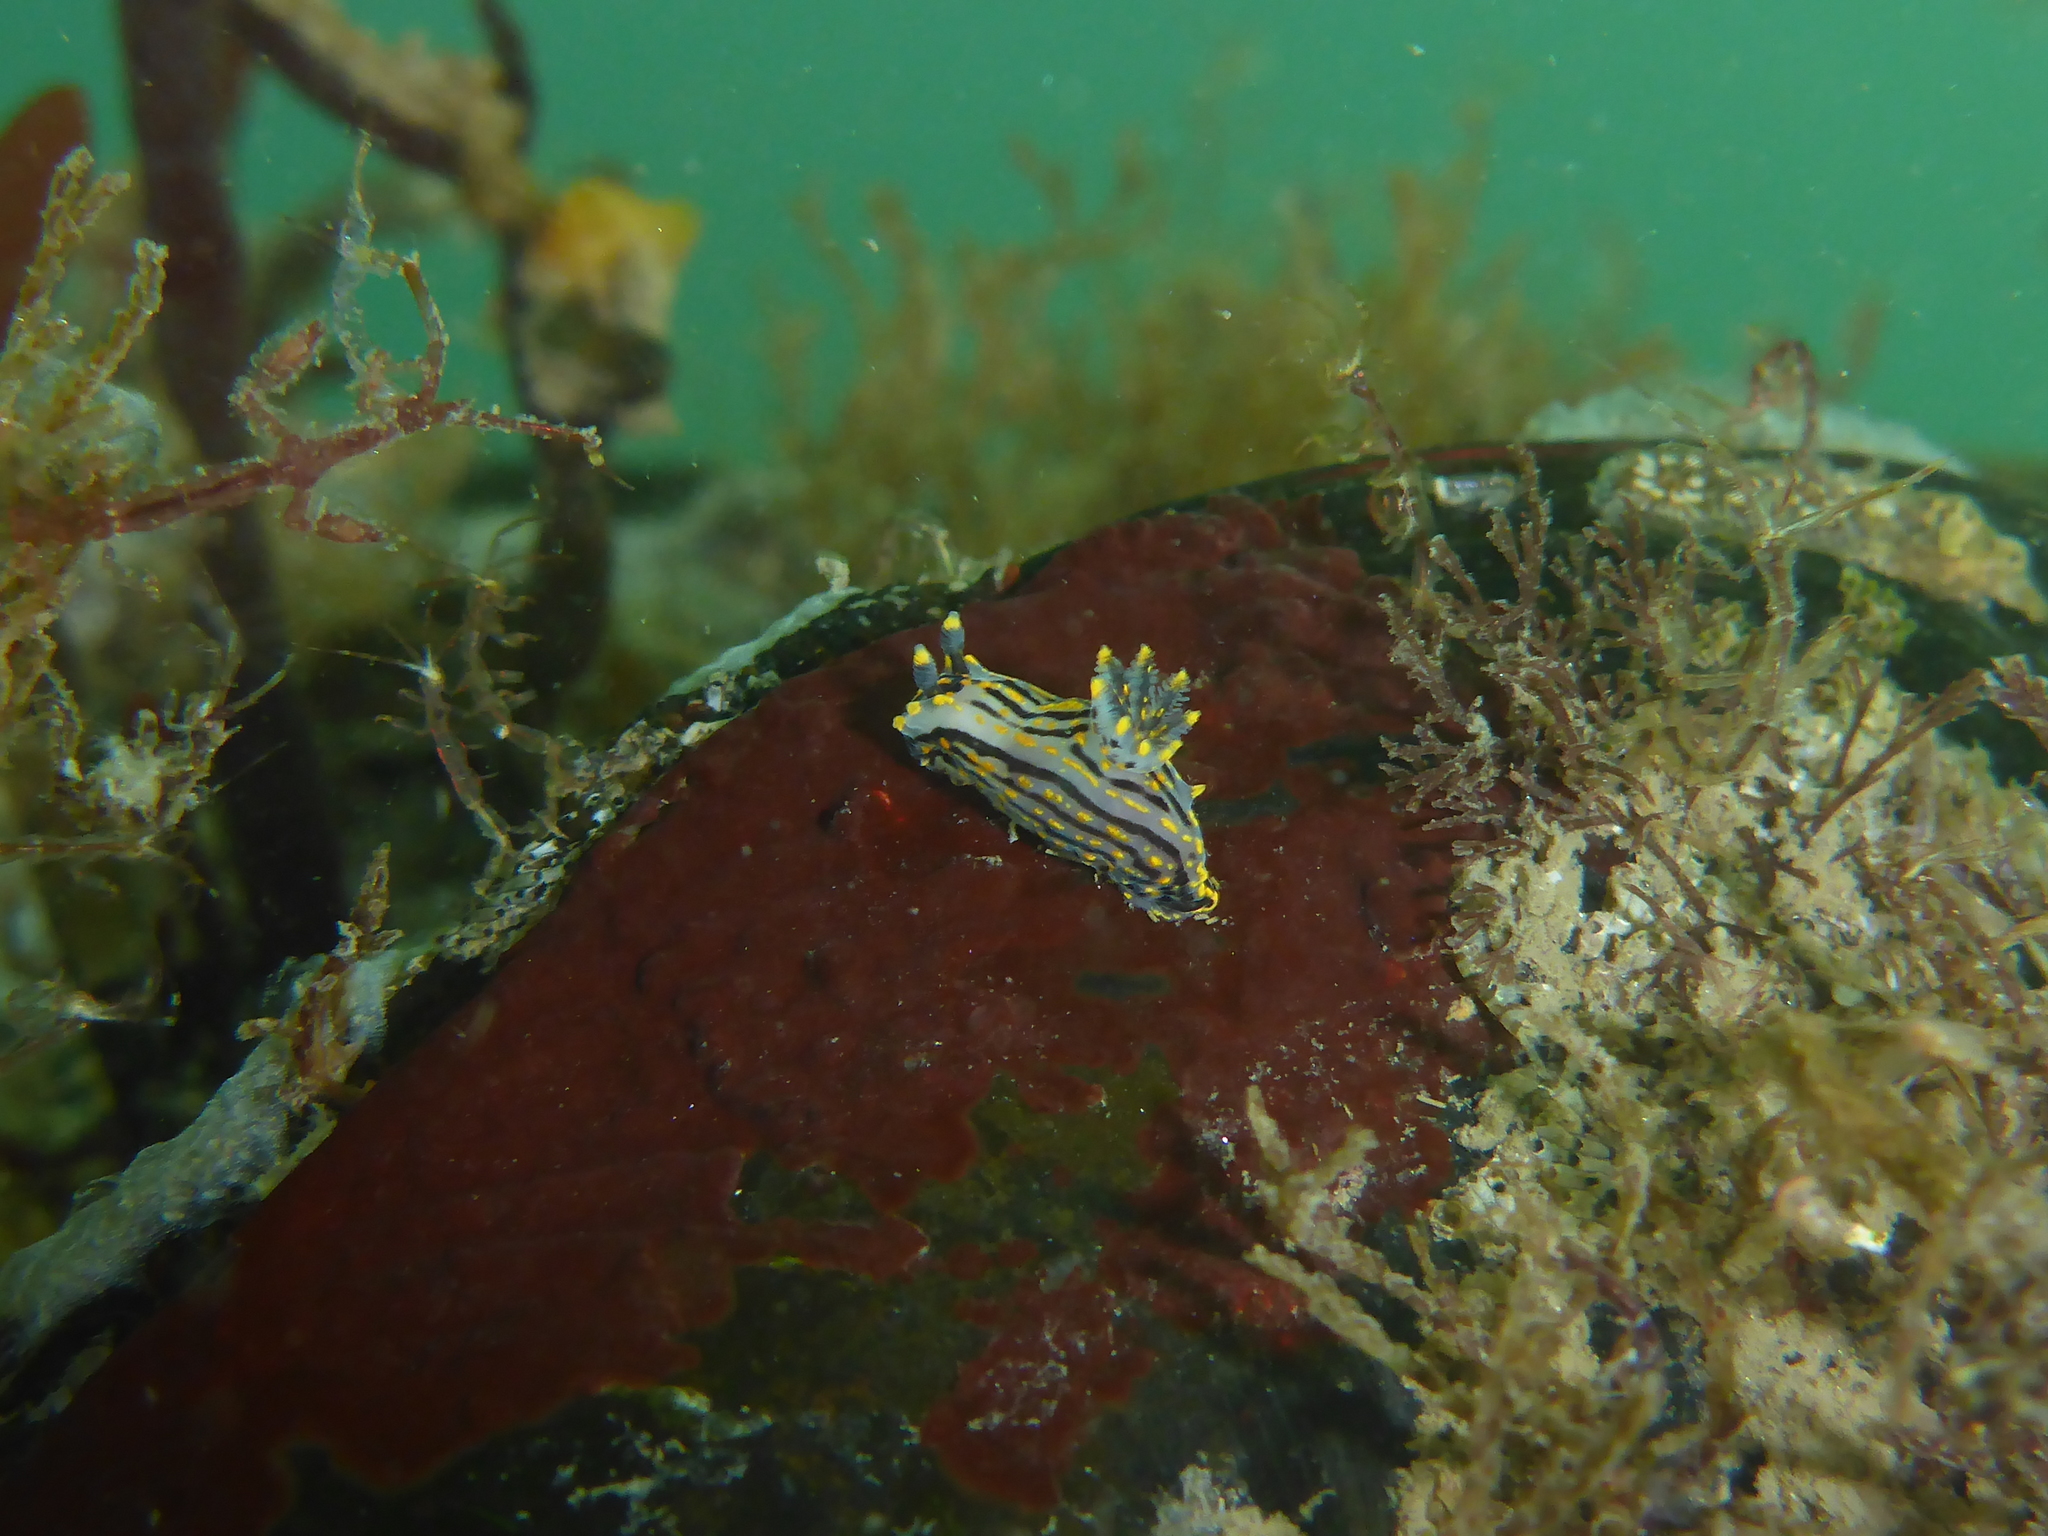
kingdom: Animalia
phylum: Mollusca
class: Gastropoda
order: Nudibranchia
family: Polyceridae
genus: Polycera
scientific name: Polycera atra
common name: Orange-spike polycera
